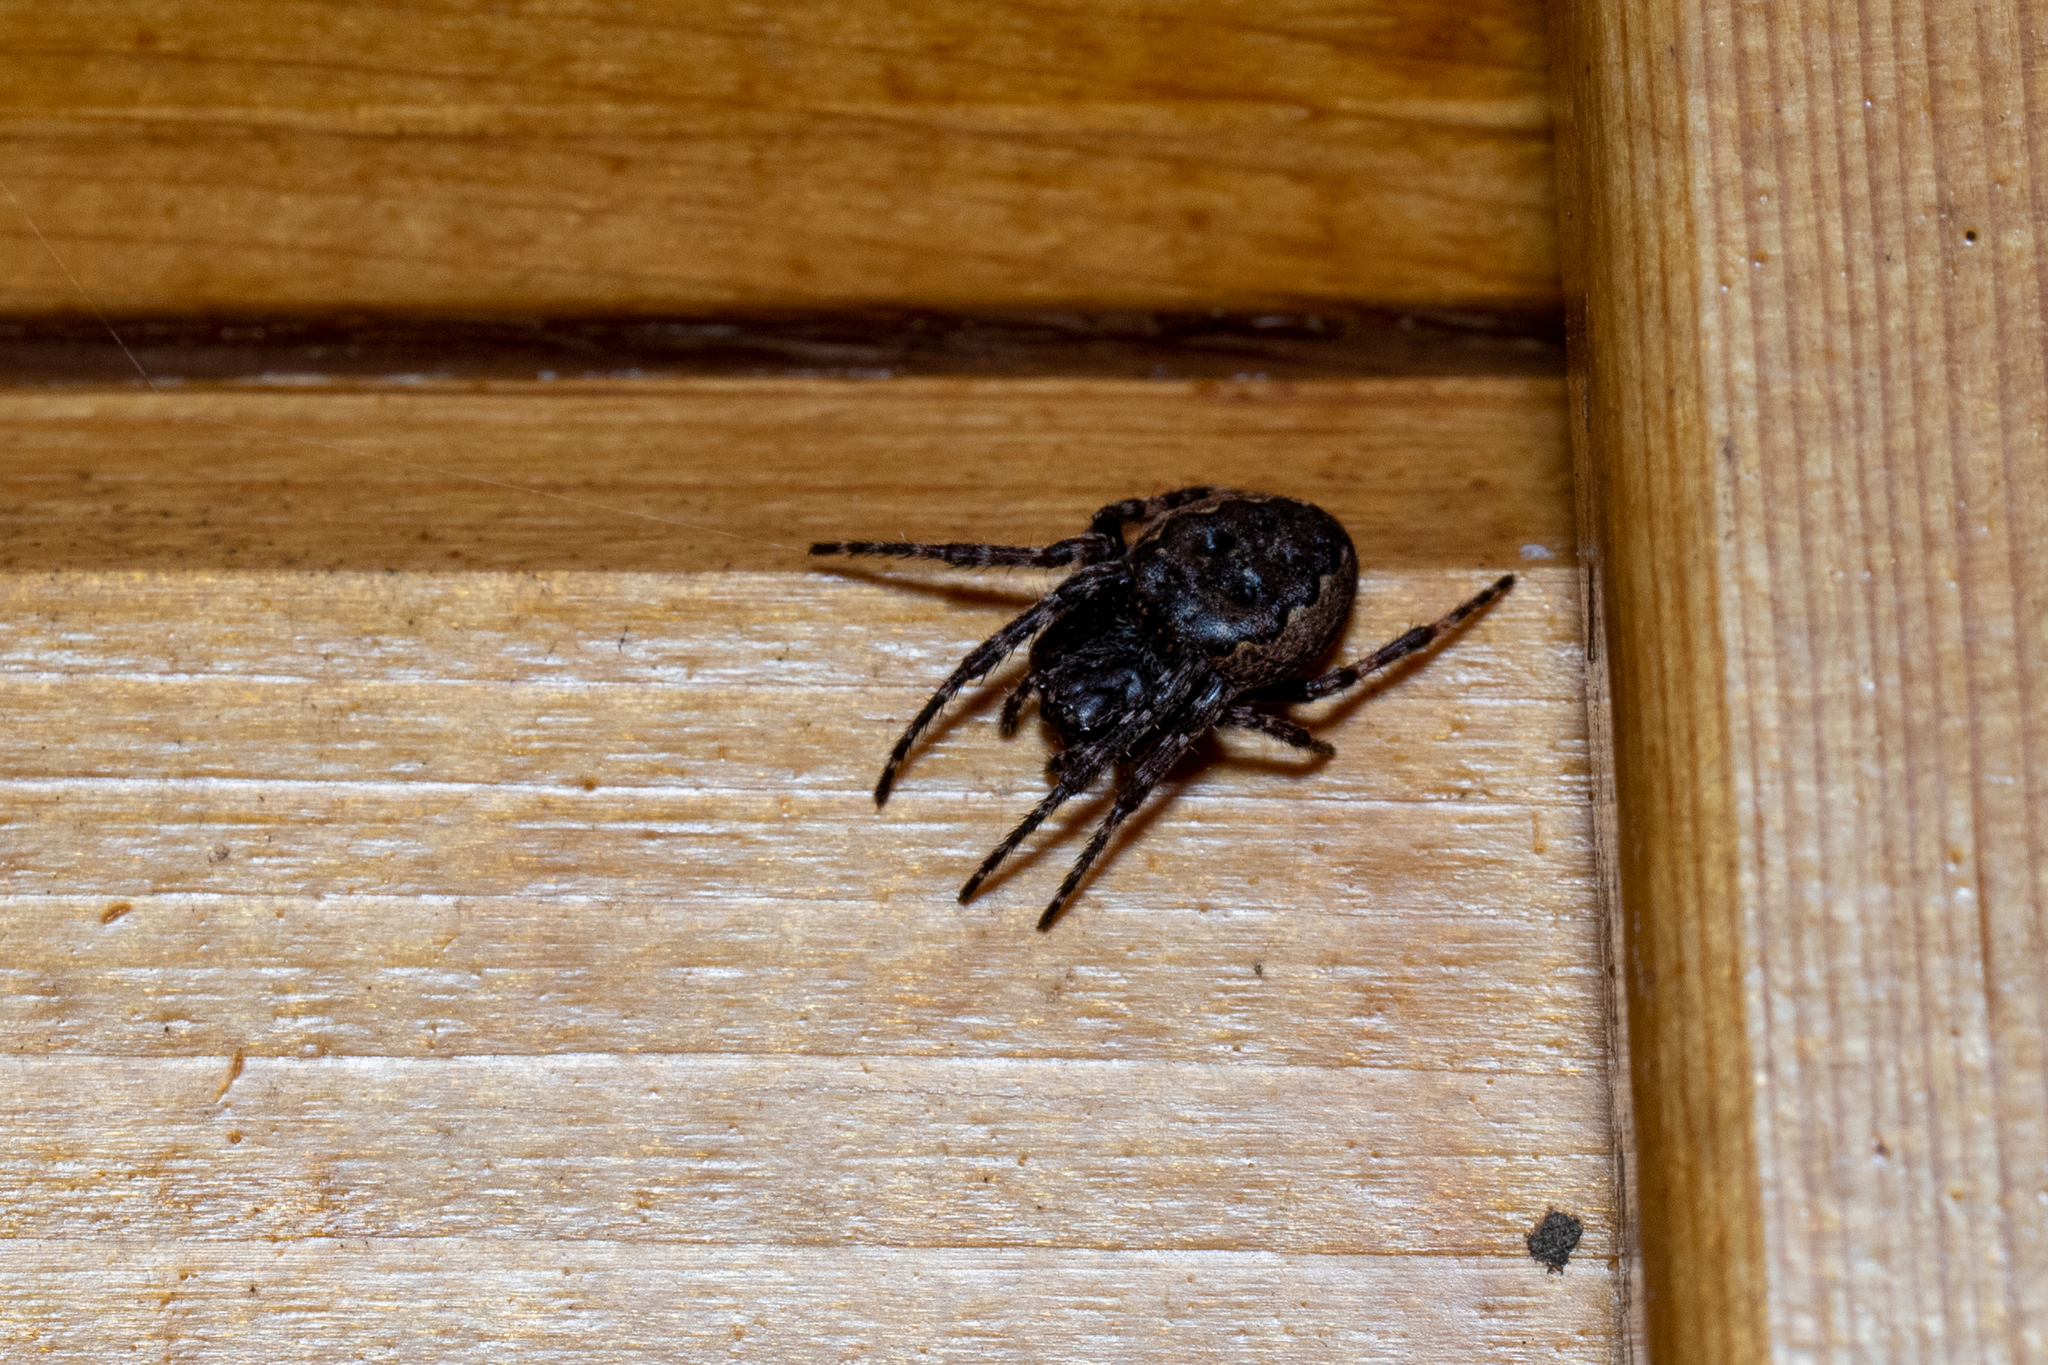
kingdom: Animalia
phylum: Arthropoda
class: Arachnida
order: Araneae
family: Araneidae
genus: Nuctenea
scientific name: Nuctenea umbratica
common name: Toad spider
